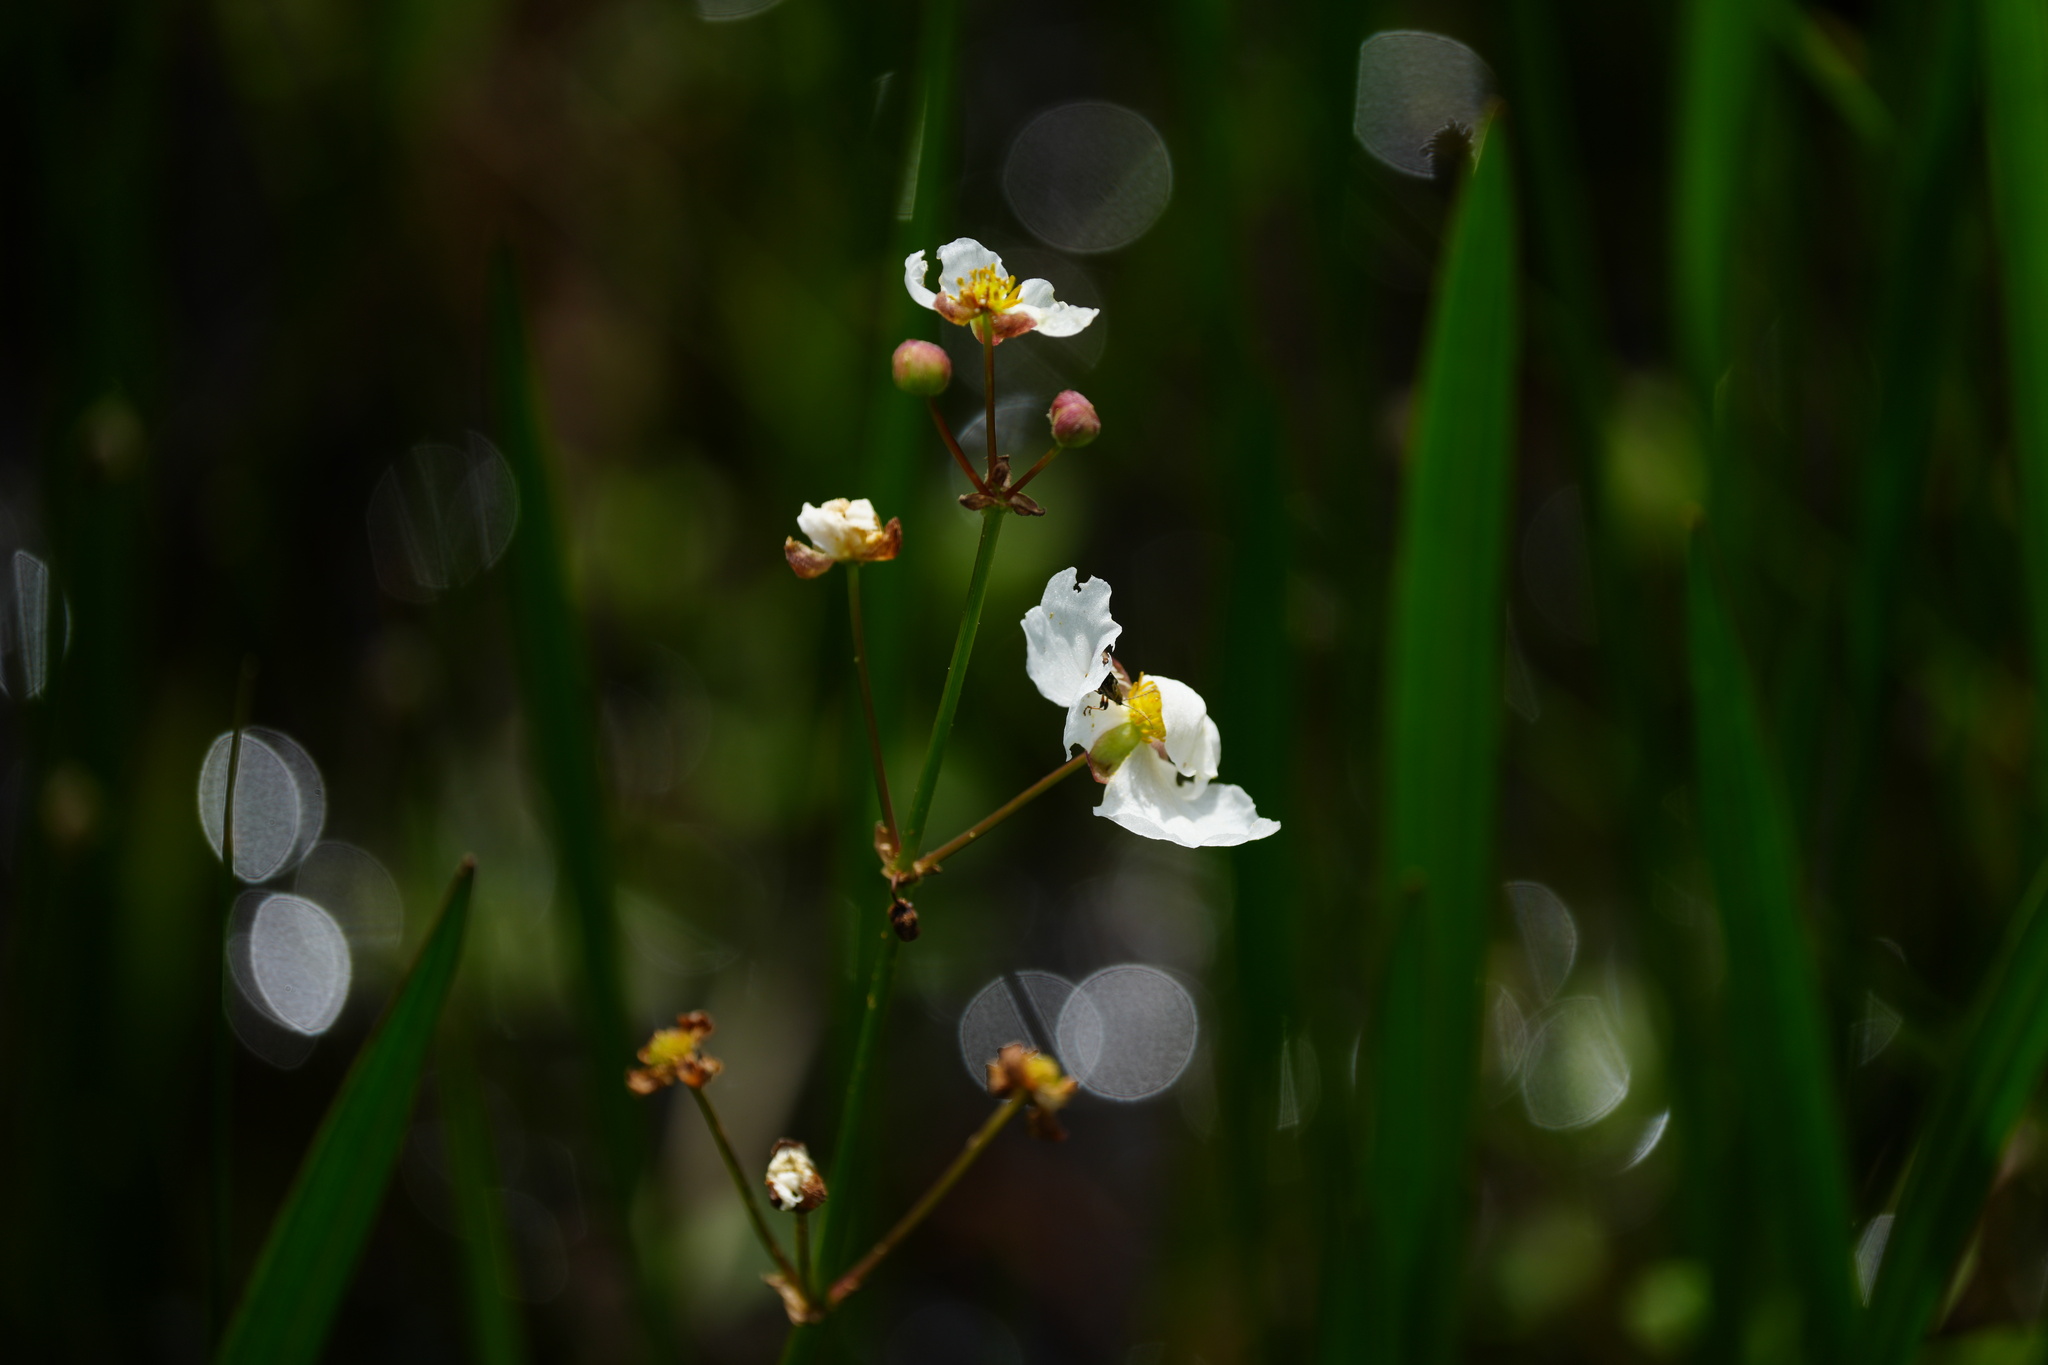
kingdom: Plantae
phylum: Tracheophyta
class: Liliopsida
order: Alismatales
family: Alismataceae
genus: Sagittaria
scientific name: Sagittaria lancifolia
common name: Lance-leaf arrowhead
